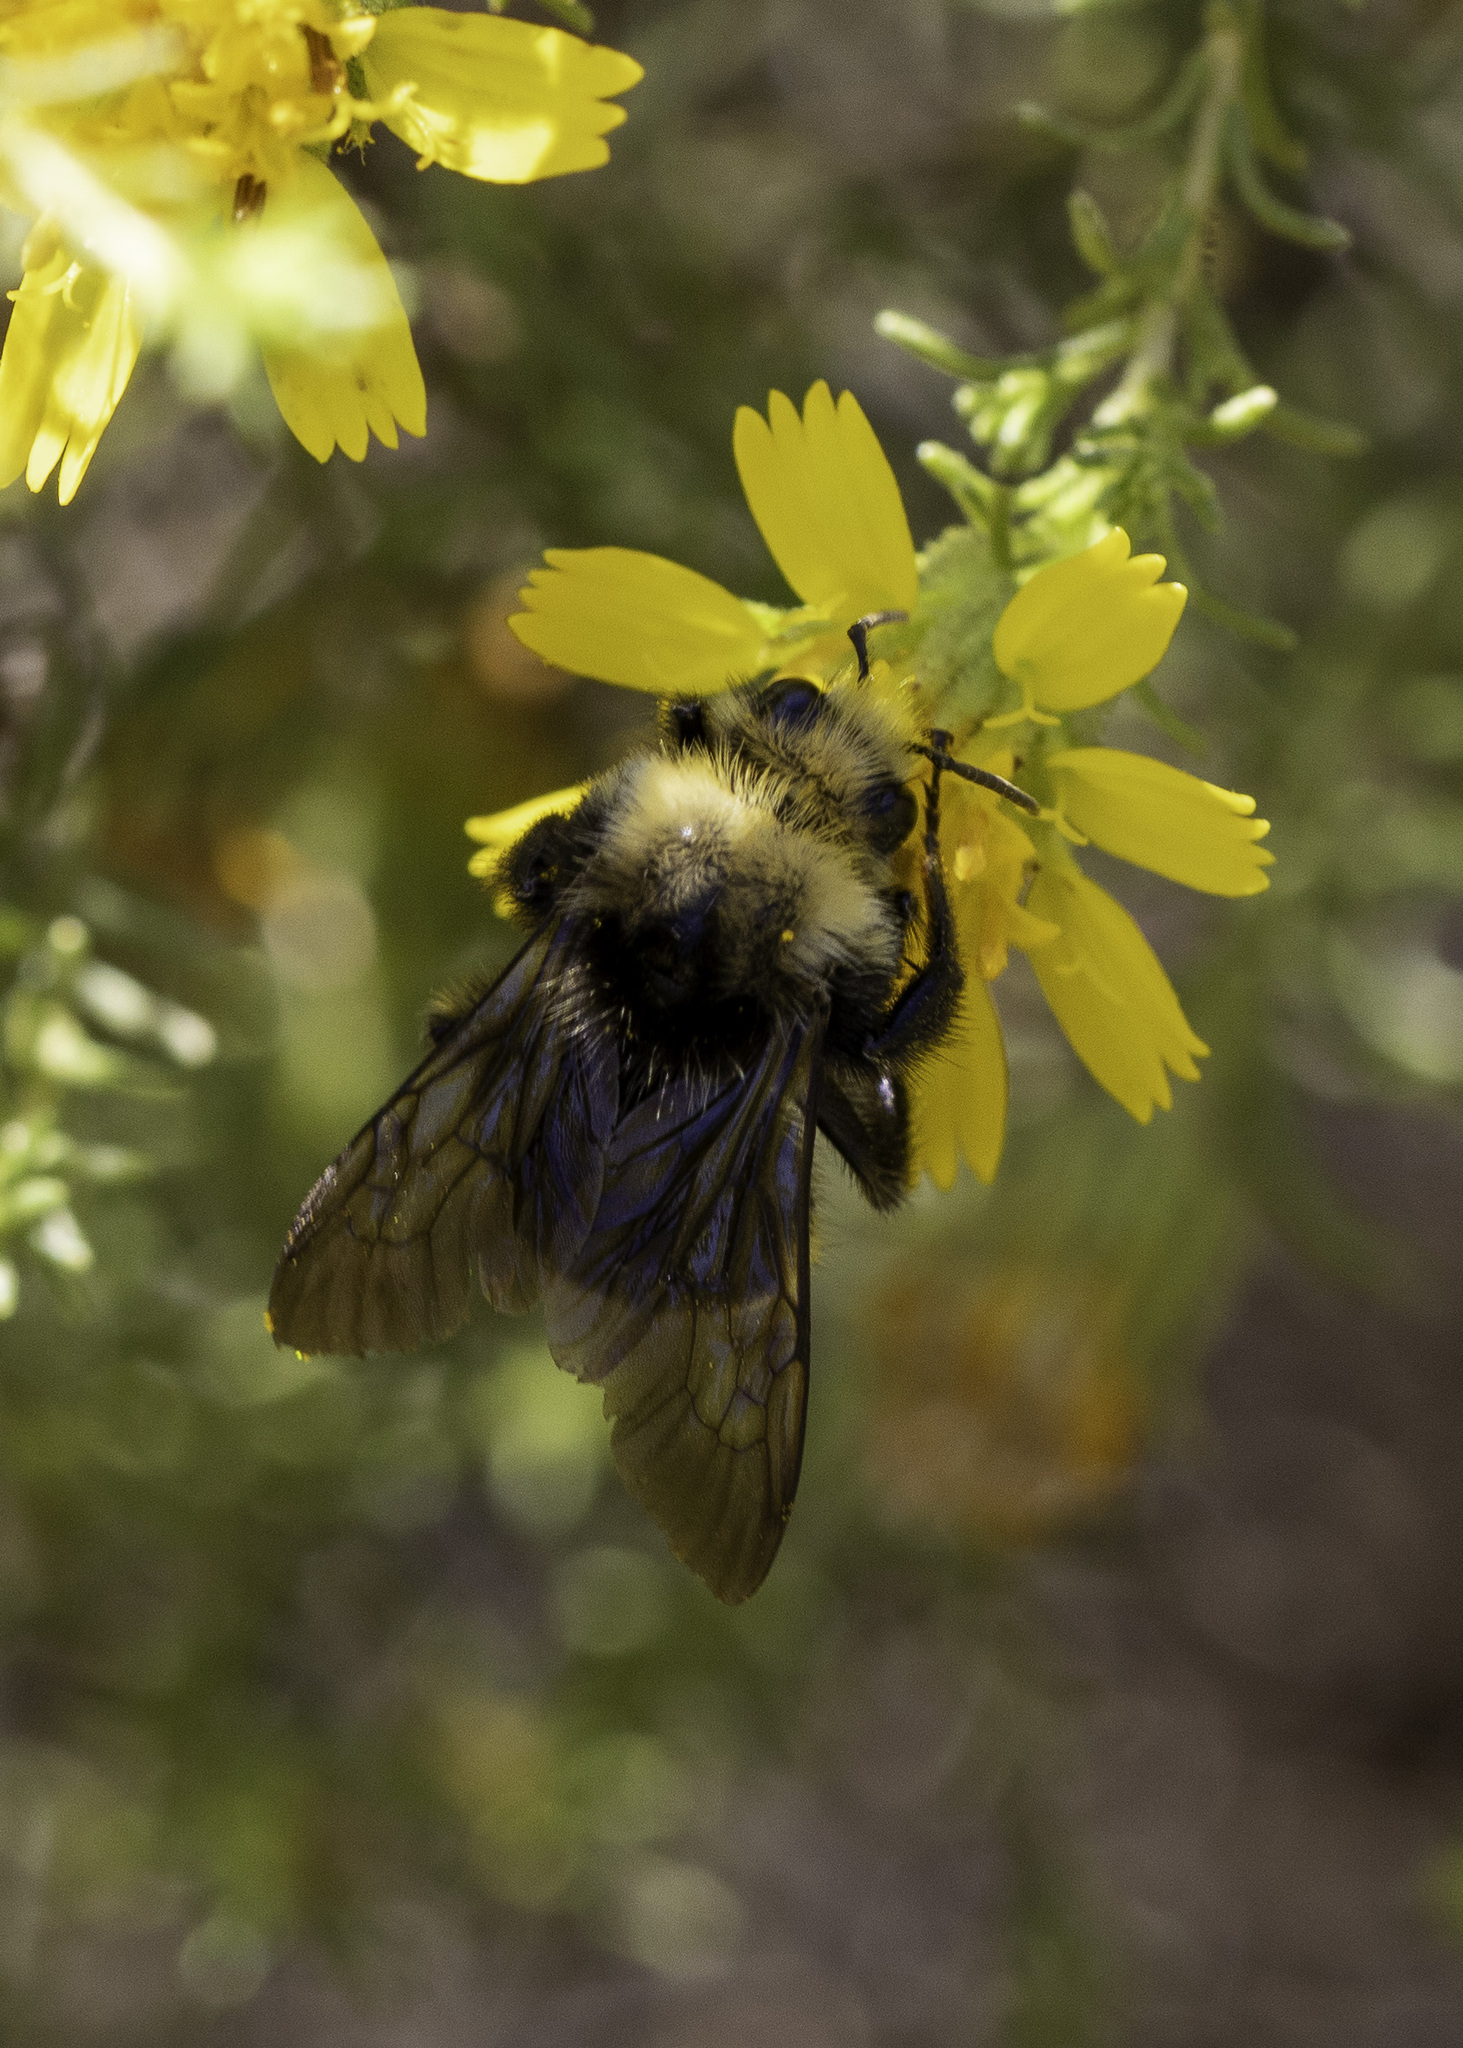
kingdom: Animalia
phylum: Arthropoda
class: Insecta
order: Hymenoptera
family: Apidae
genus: Bombus
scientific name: Bombus vosnesenskii
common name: Vosnesensky bumble bee
